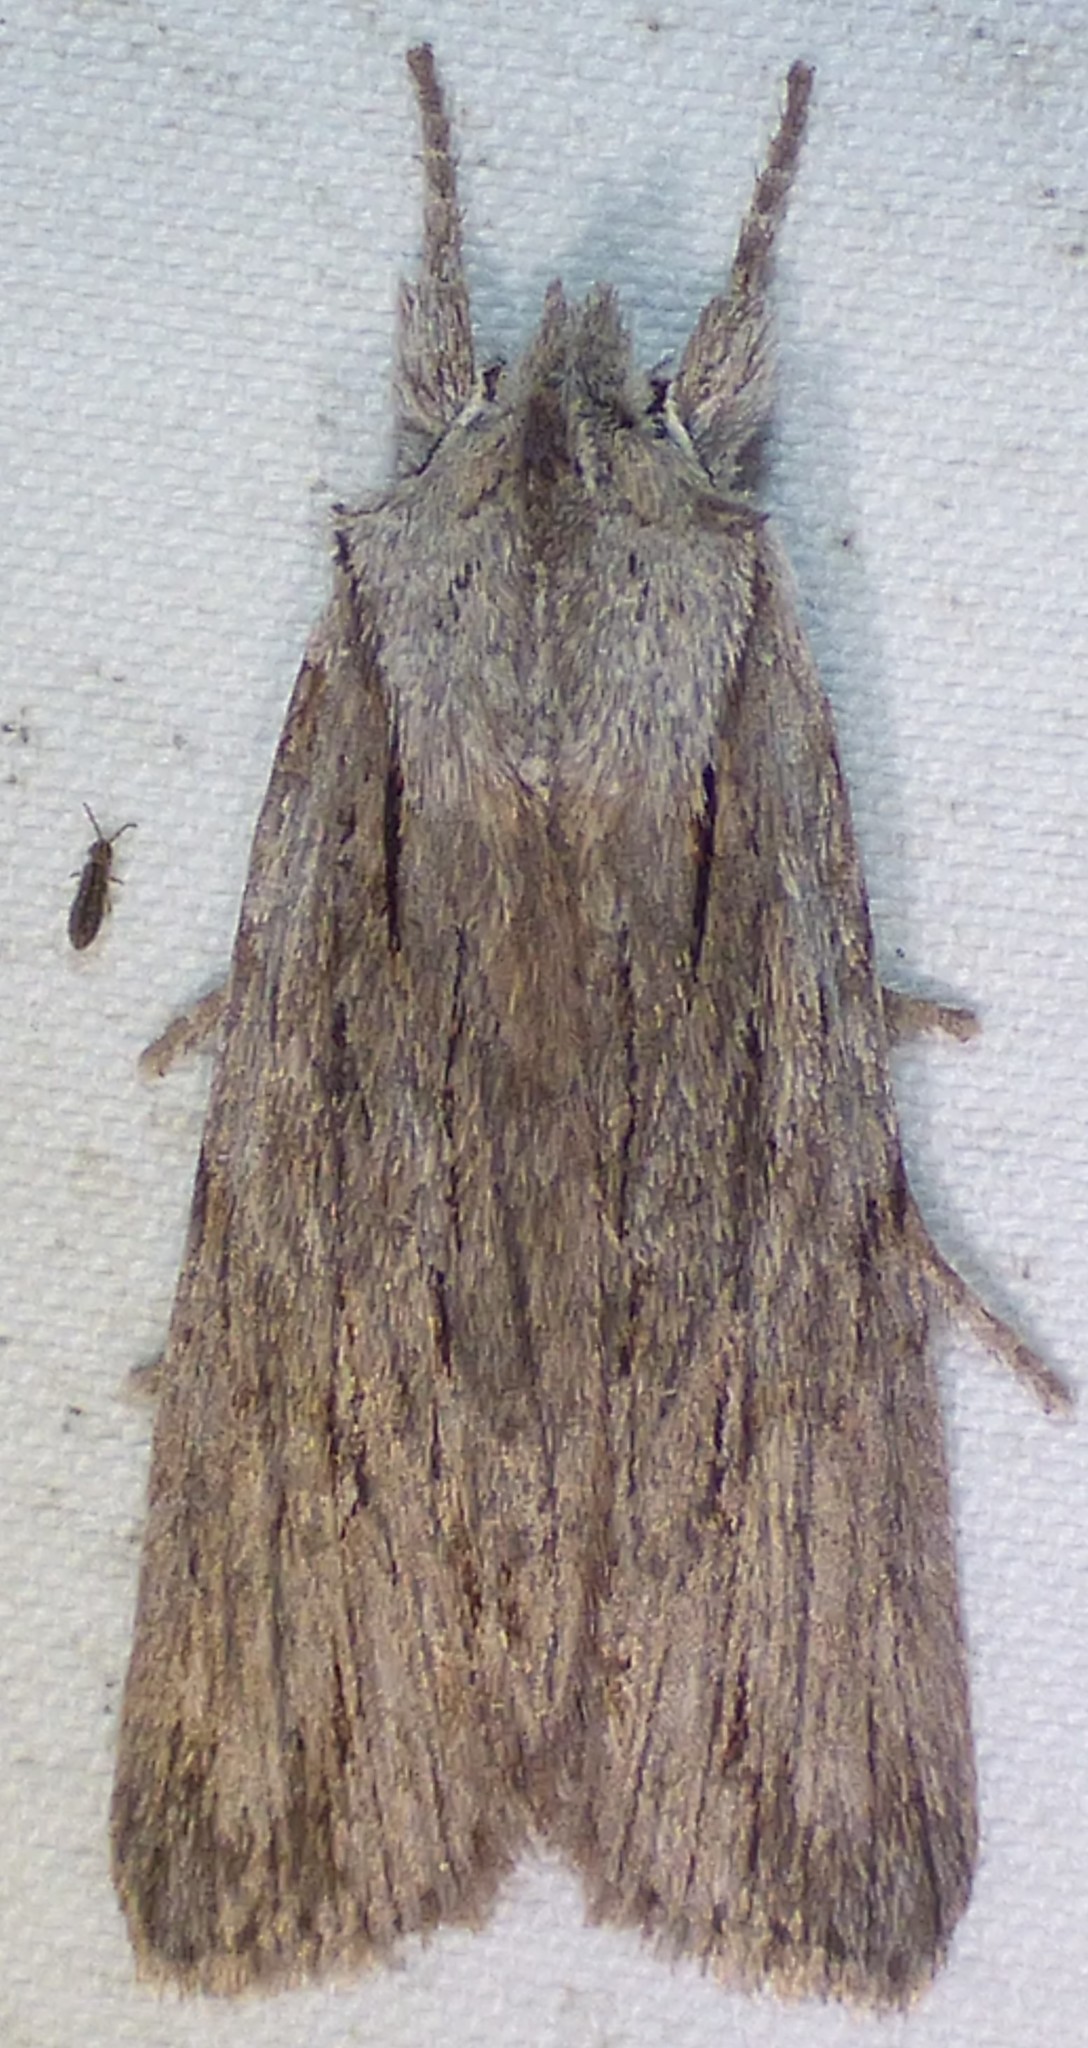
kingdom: Animalia
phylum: Arthropoda
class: Insecta
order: Lepidoptera
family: Noctuidae
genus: Lithophane
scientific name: Lithophane lemmeri
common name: Lemmer's pinion moth
